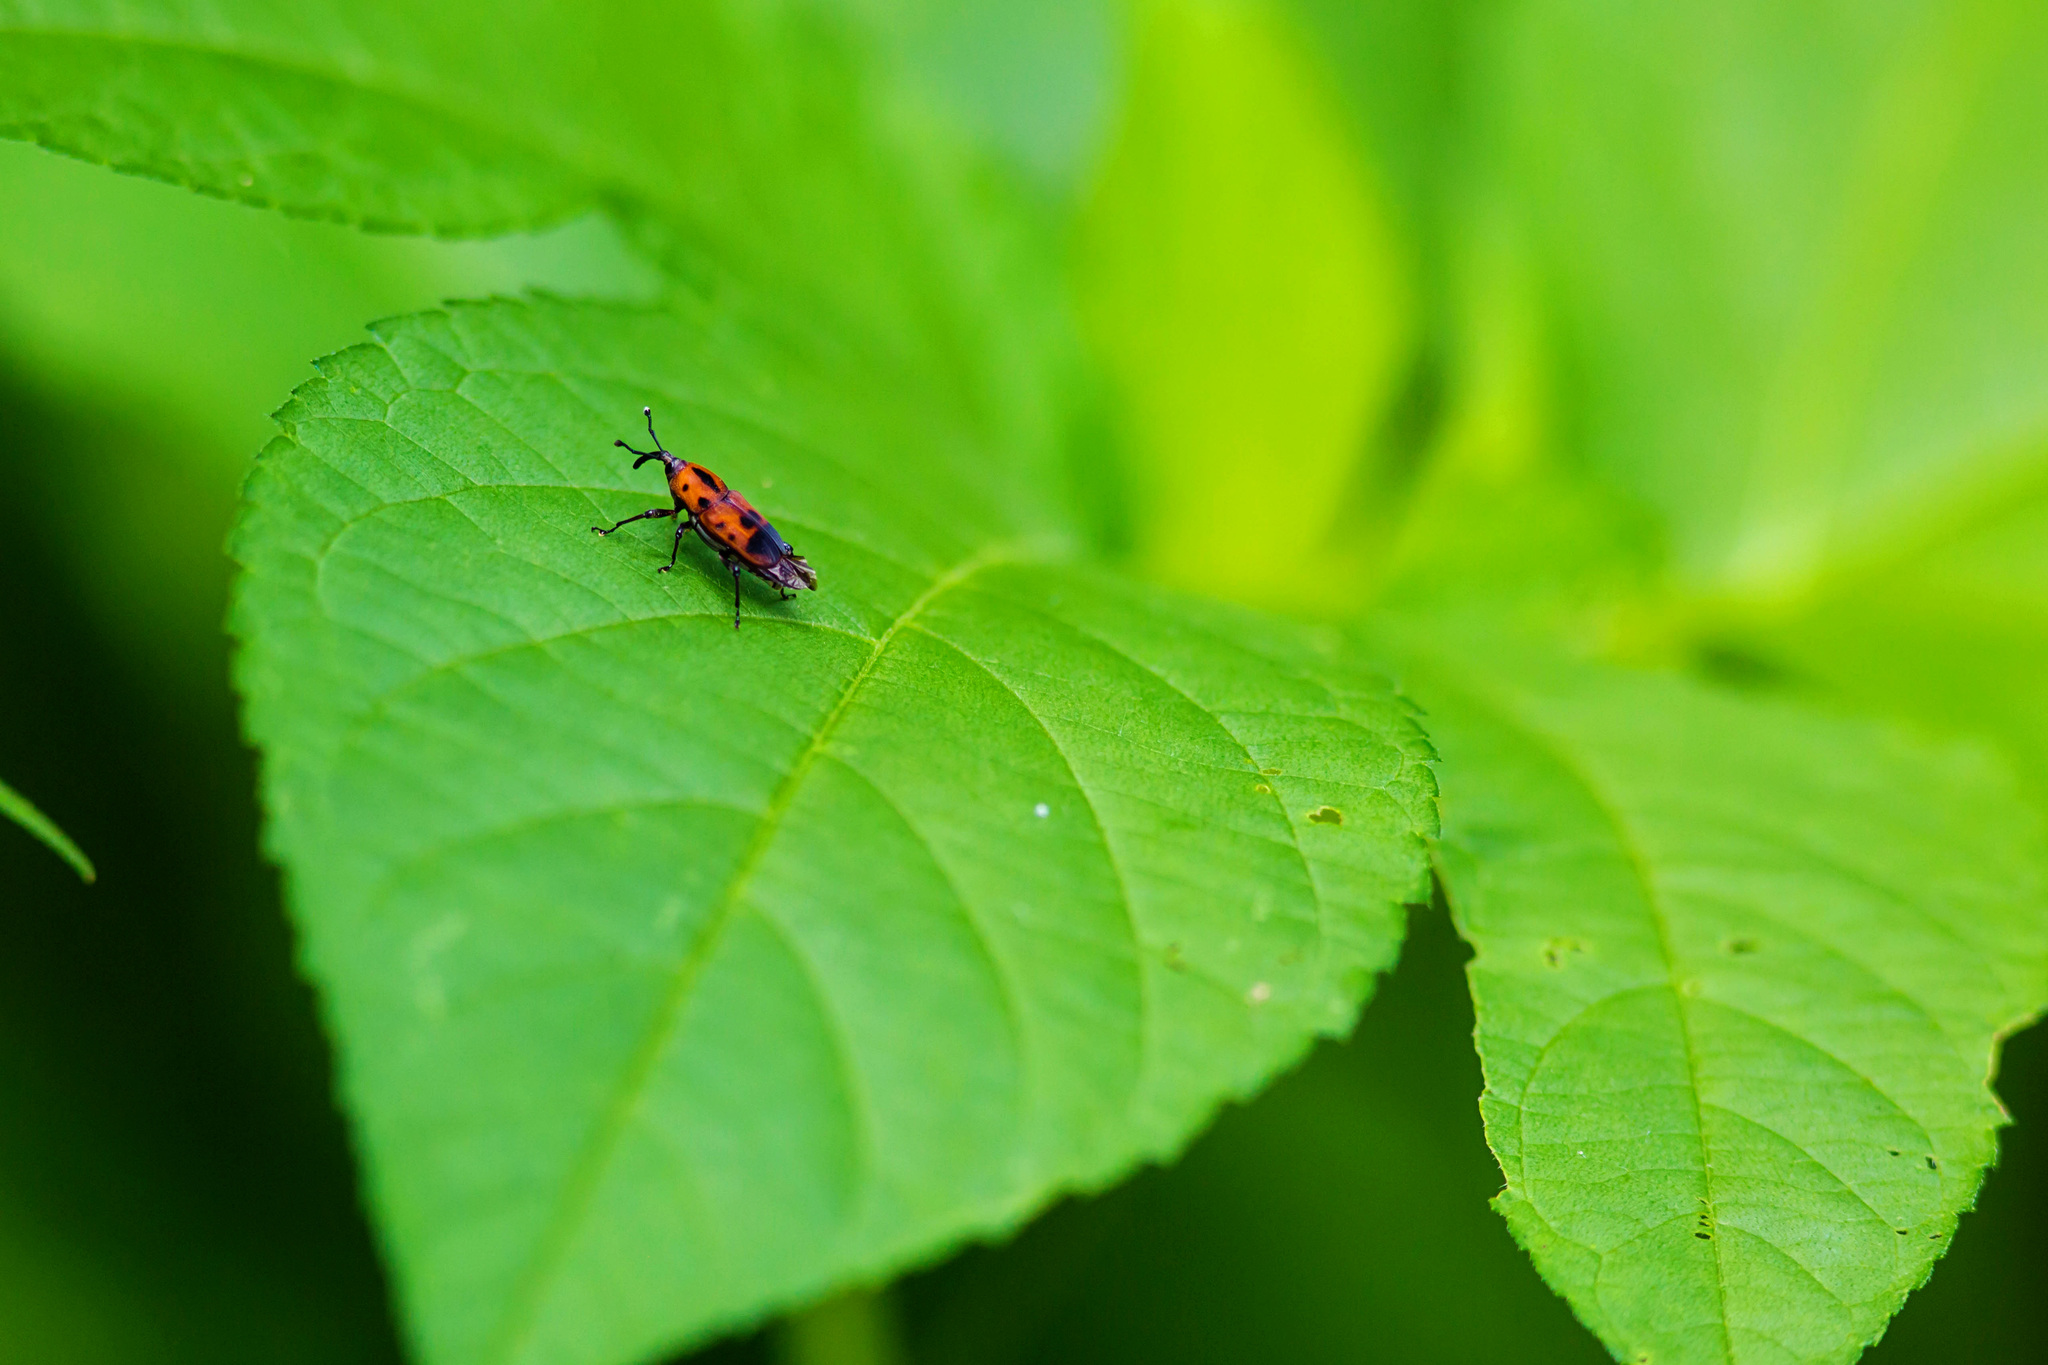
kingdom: Animalia
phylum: Arthropoda
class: Insecta
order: Coleoptera
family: Dryophthoridae
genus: Rhodobaenus
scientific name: Rhodobaenus quinquepunctatus
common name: Cocklebur weevil
